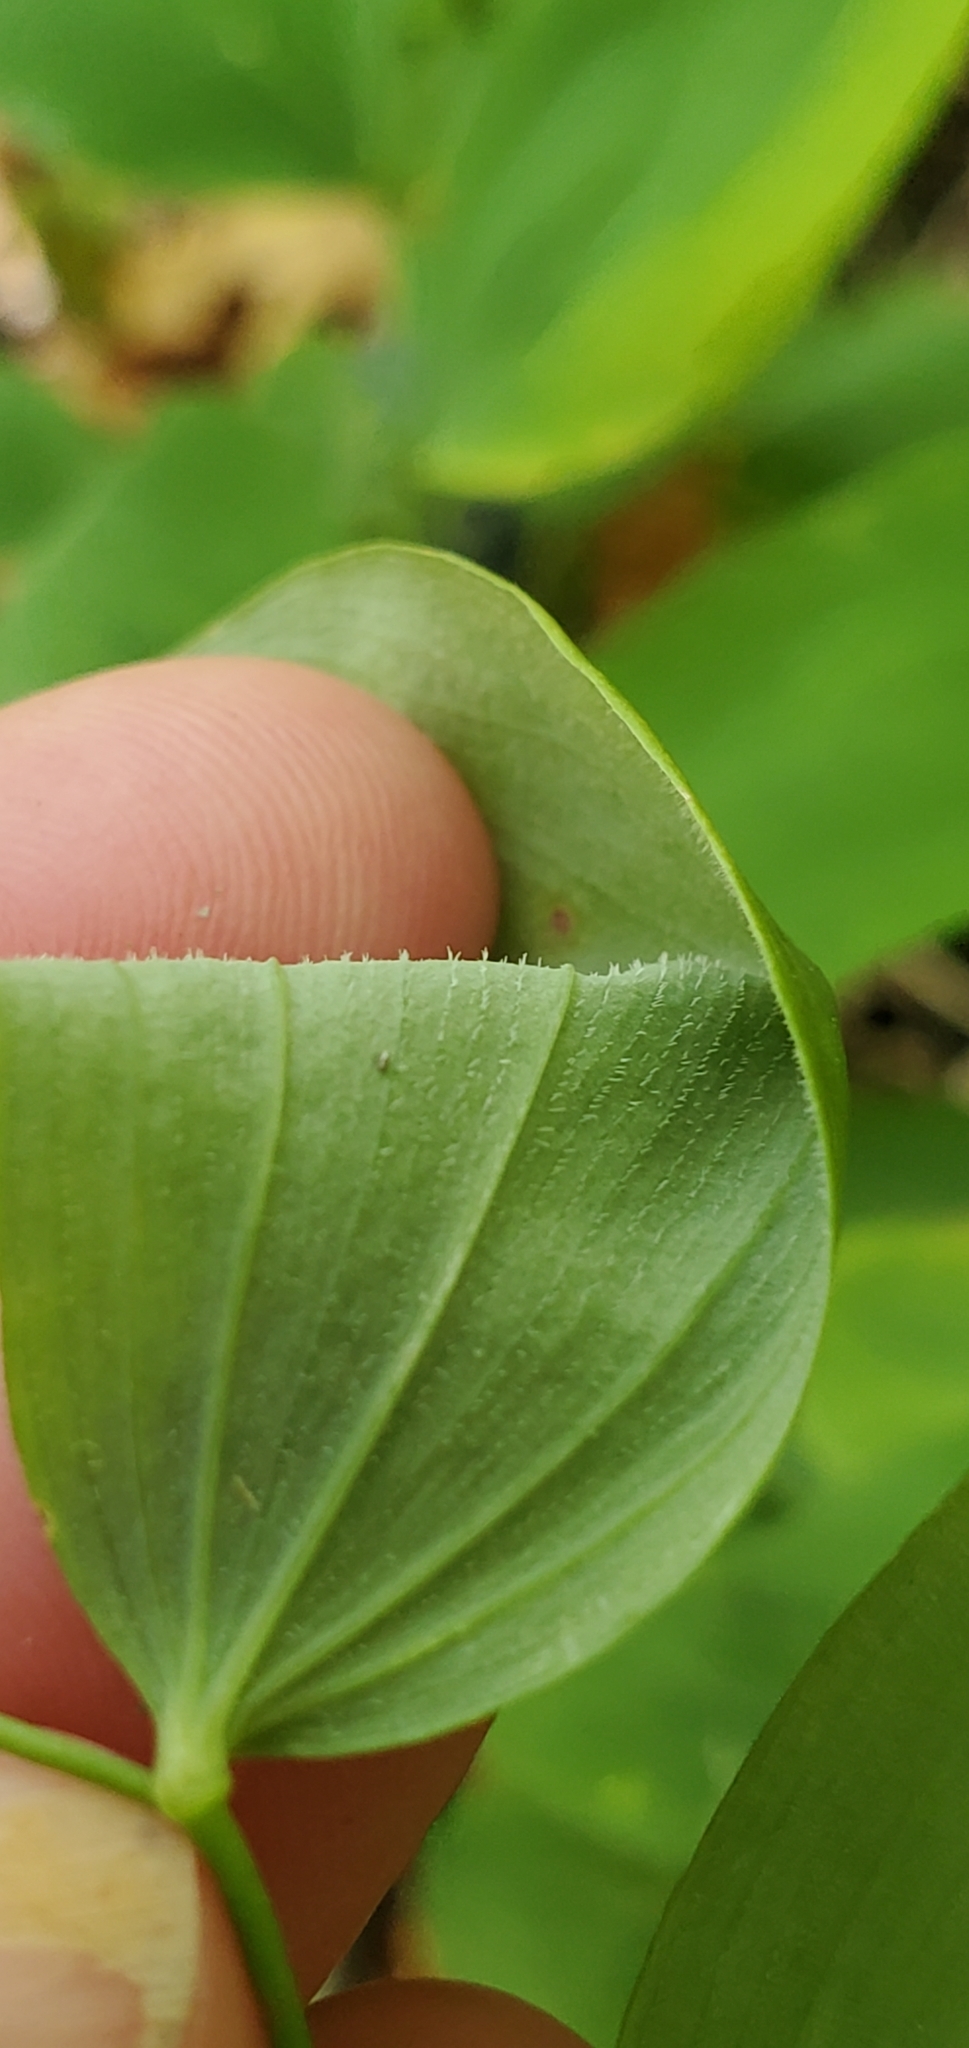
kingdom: Plantae
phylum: Tracheophyta
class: Liliopsida
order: Asparagales
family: Asparagaceae
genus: Polygonatum
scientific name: Polygonatum pubescens
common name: Downy solomon's seal
